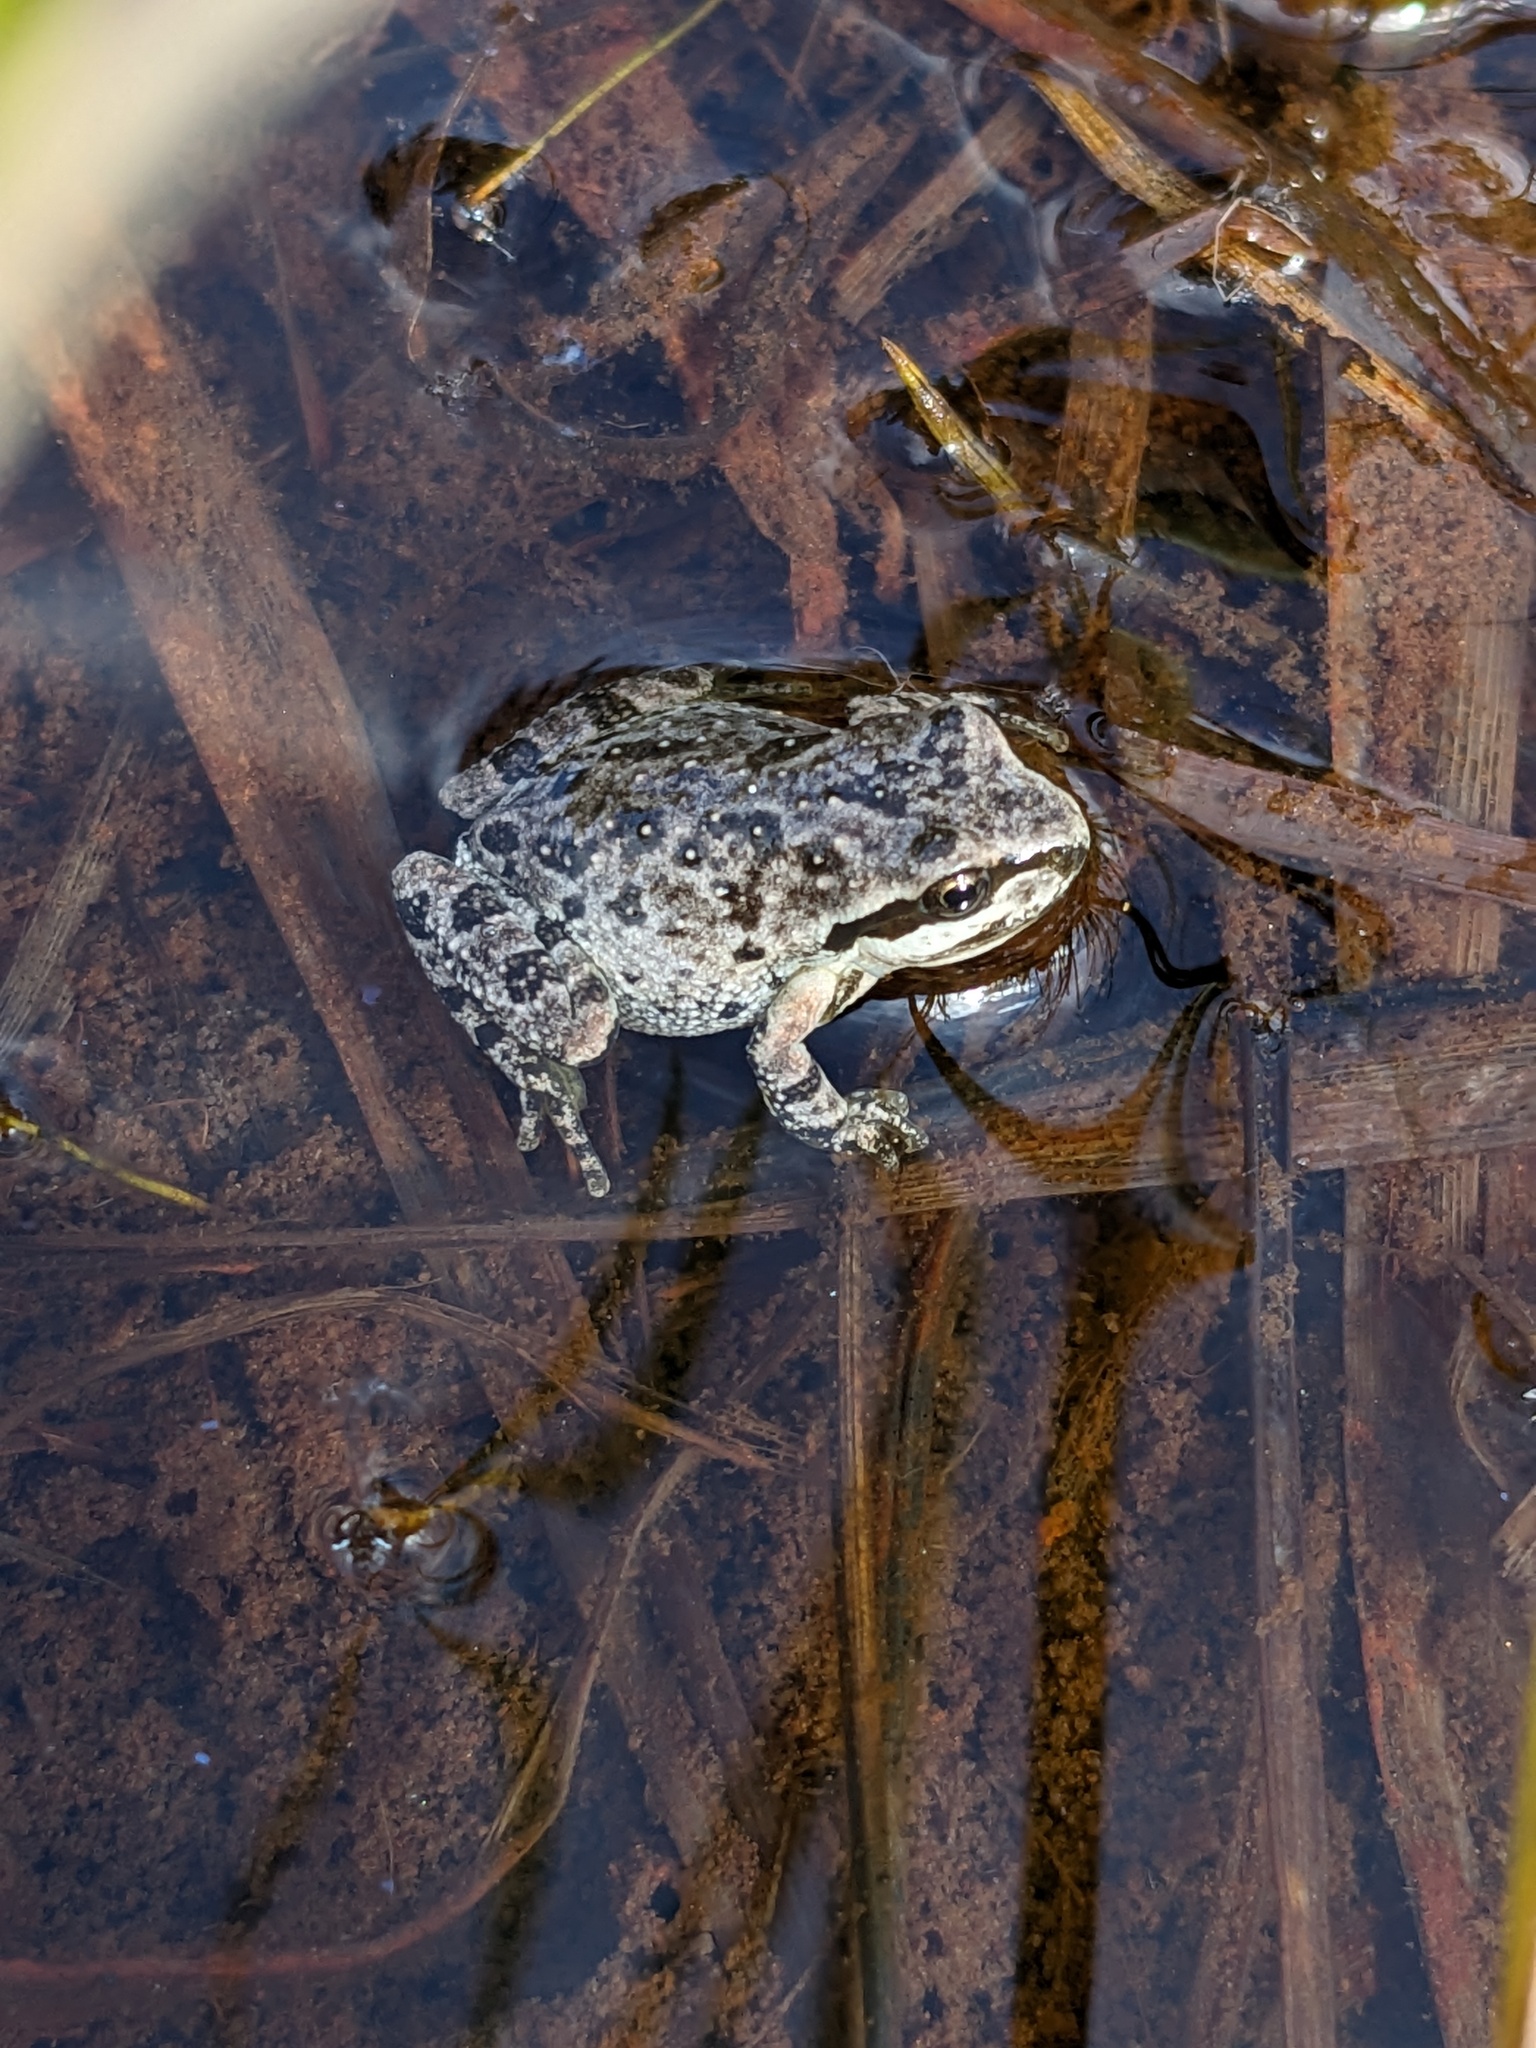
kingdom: Animalia
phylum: Chordata
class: Amphibia
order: Anura
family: Hylidae
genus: Pseudacris
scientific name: Pseudacris regilla
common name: Pacific chorus frog
